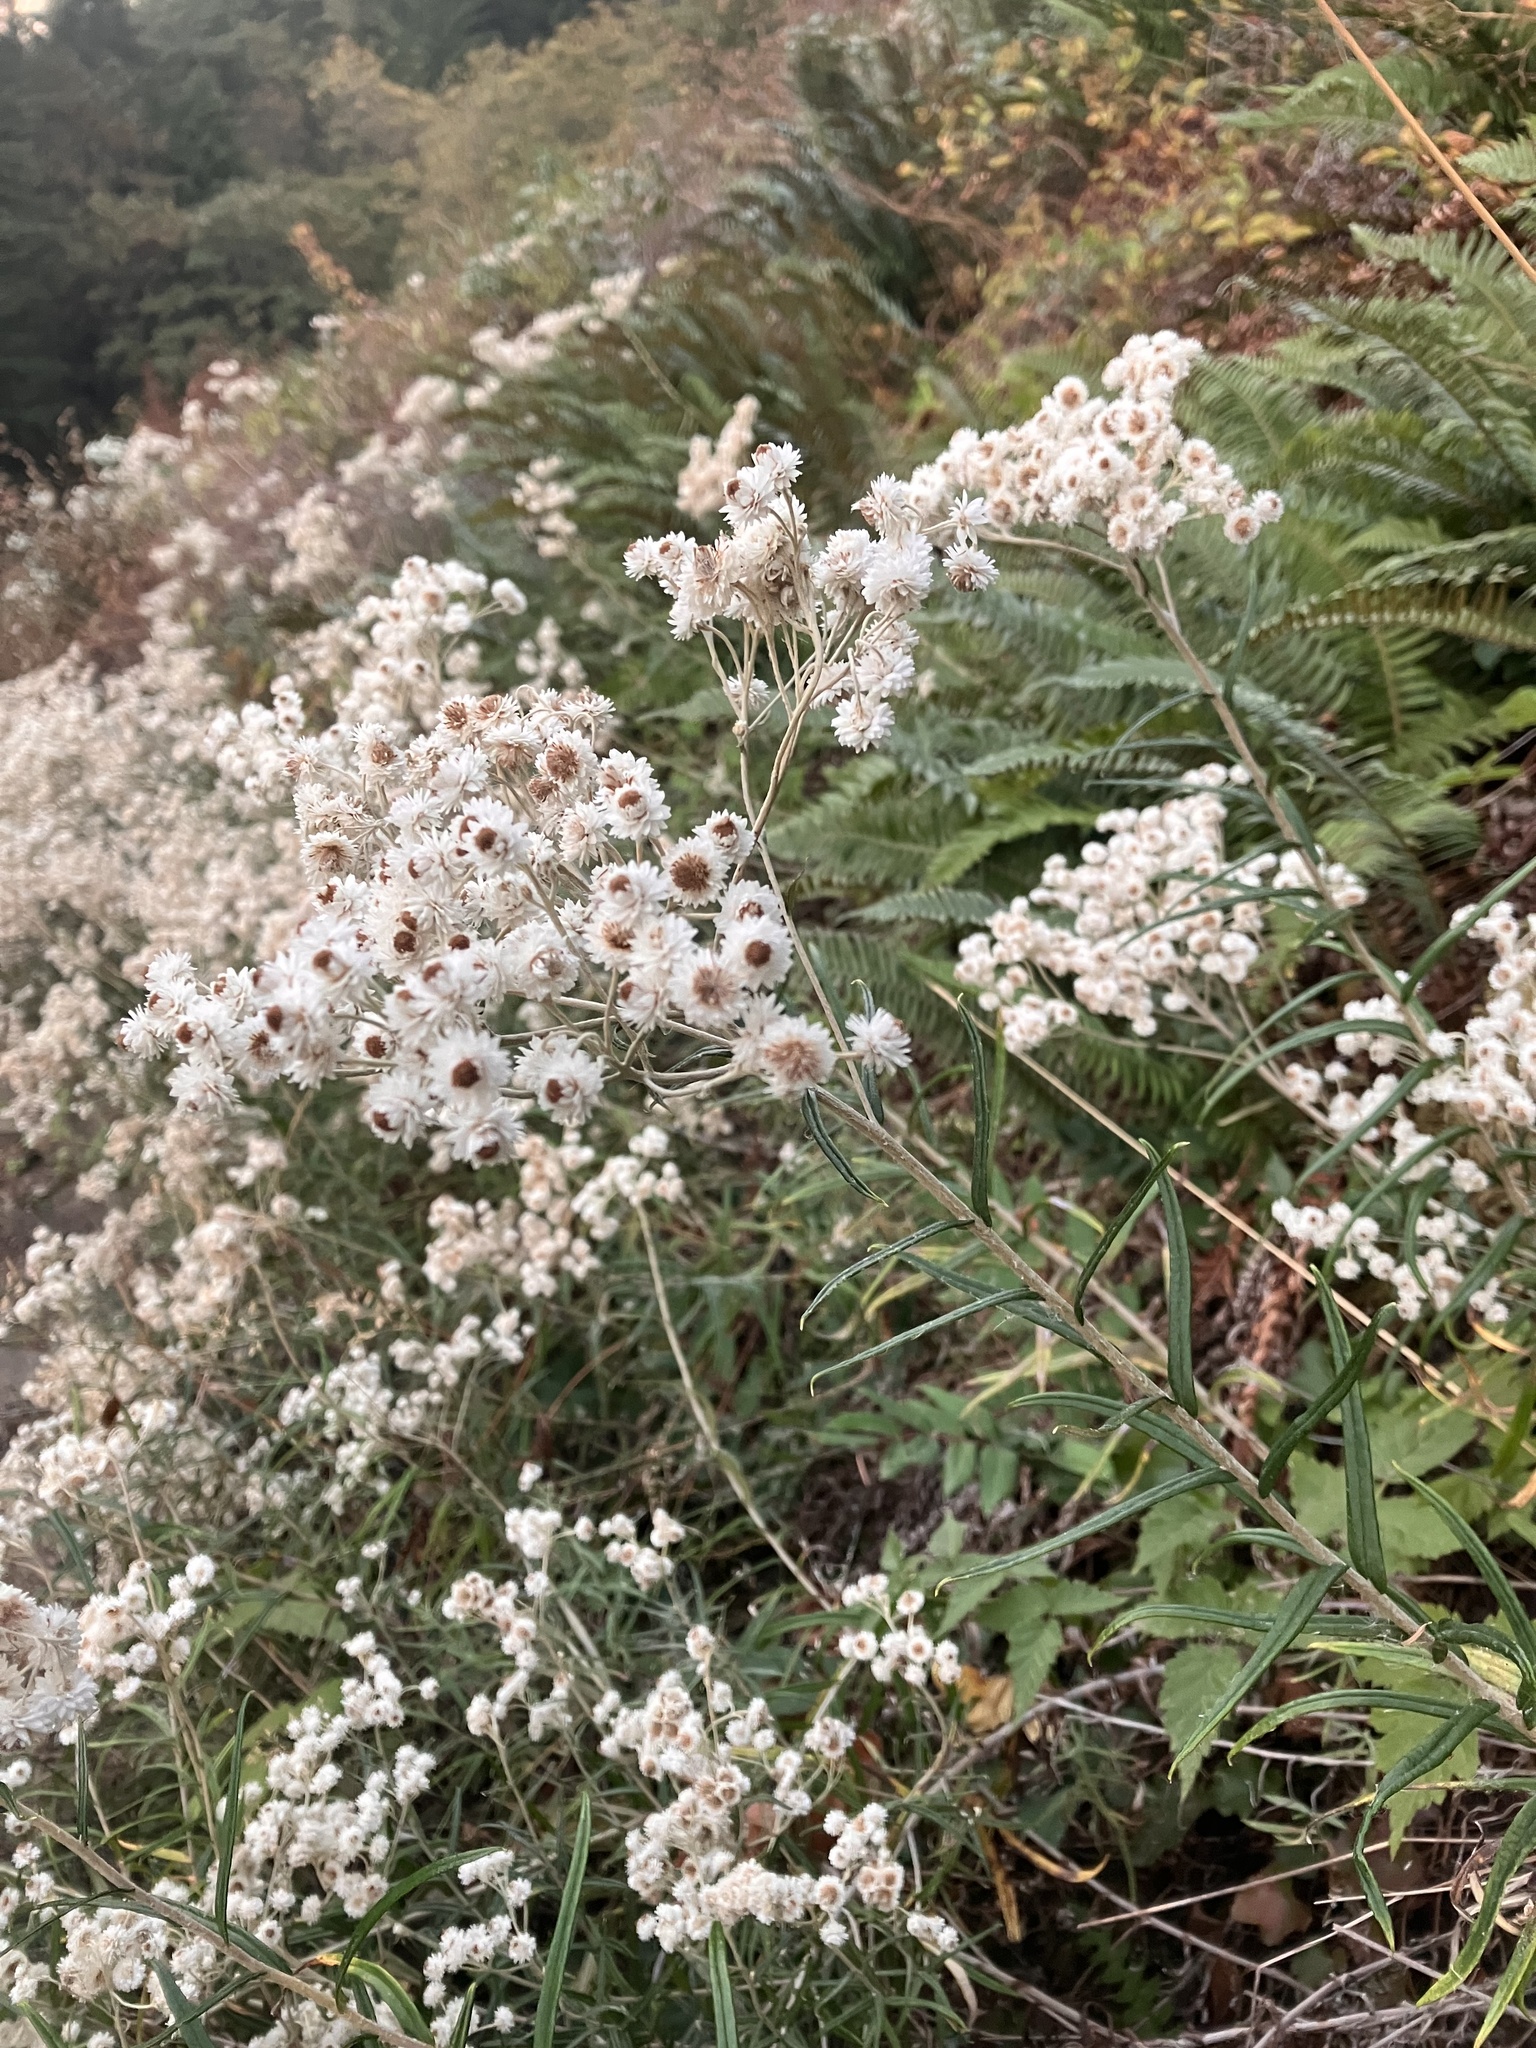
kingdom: Plantae
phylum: Tracheophyta
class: Magnoliopsida
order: Asterales
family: Asteraceae
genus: Anaphalis
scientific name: Anaphalis margaritacea
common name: Pearly everlasting
